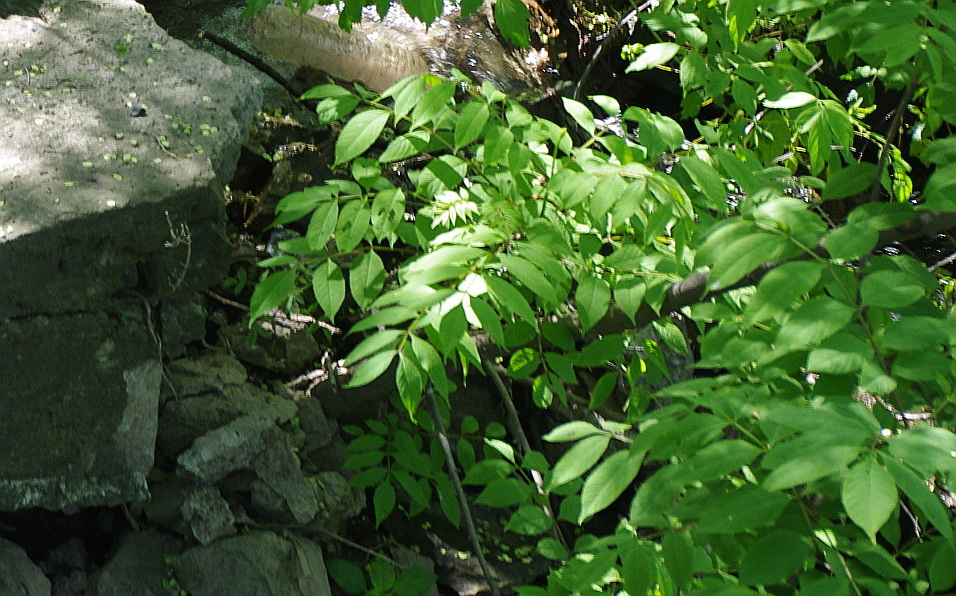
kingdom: Plantae
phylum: Tracheophyta
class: Magnoliopsida
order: Lamiales
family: Oleaceae
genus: Fraxinus
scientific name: Fraxinus mandshurica
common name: Manchurian ash
